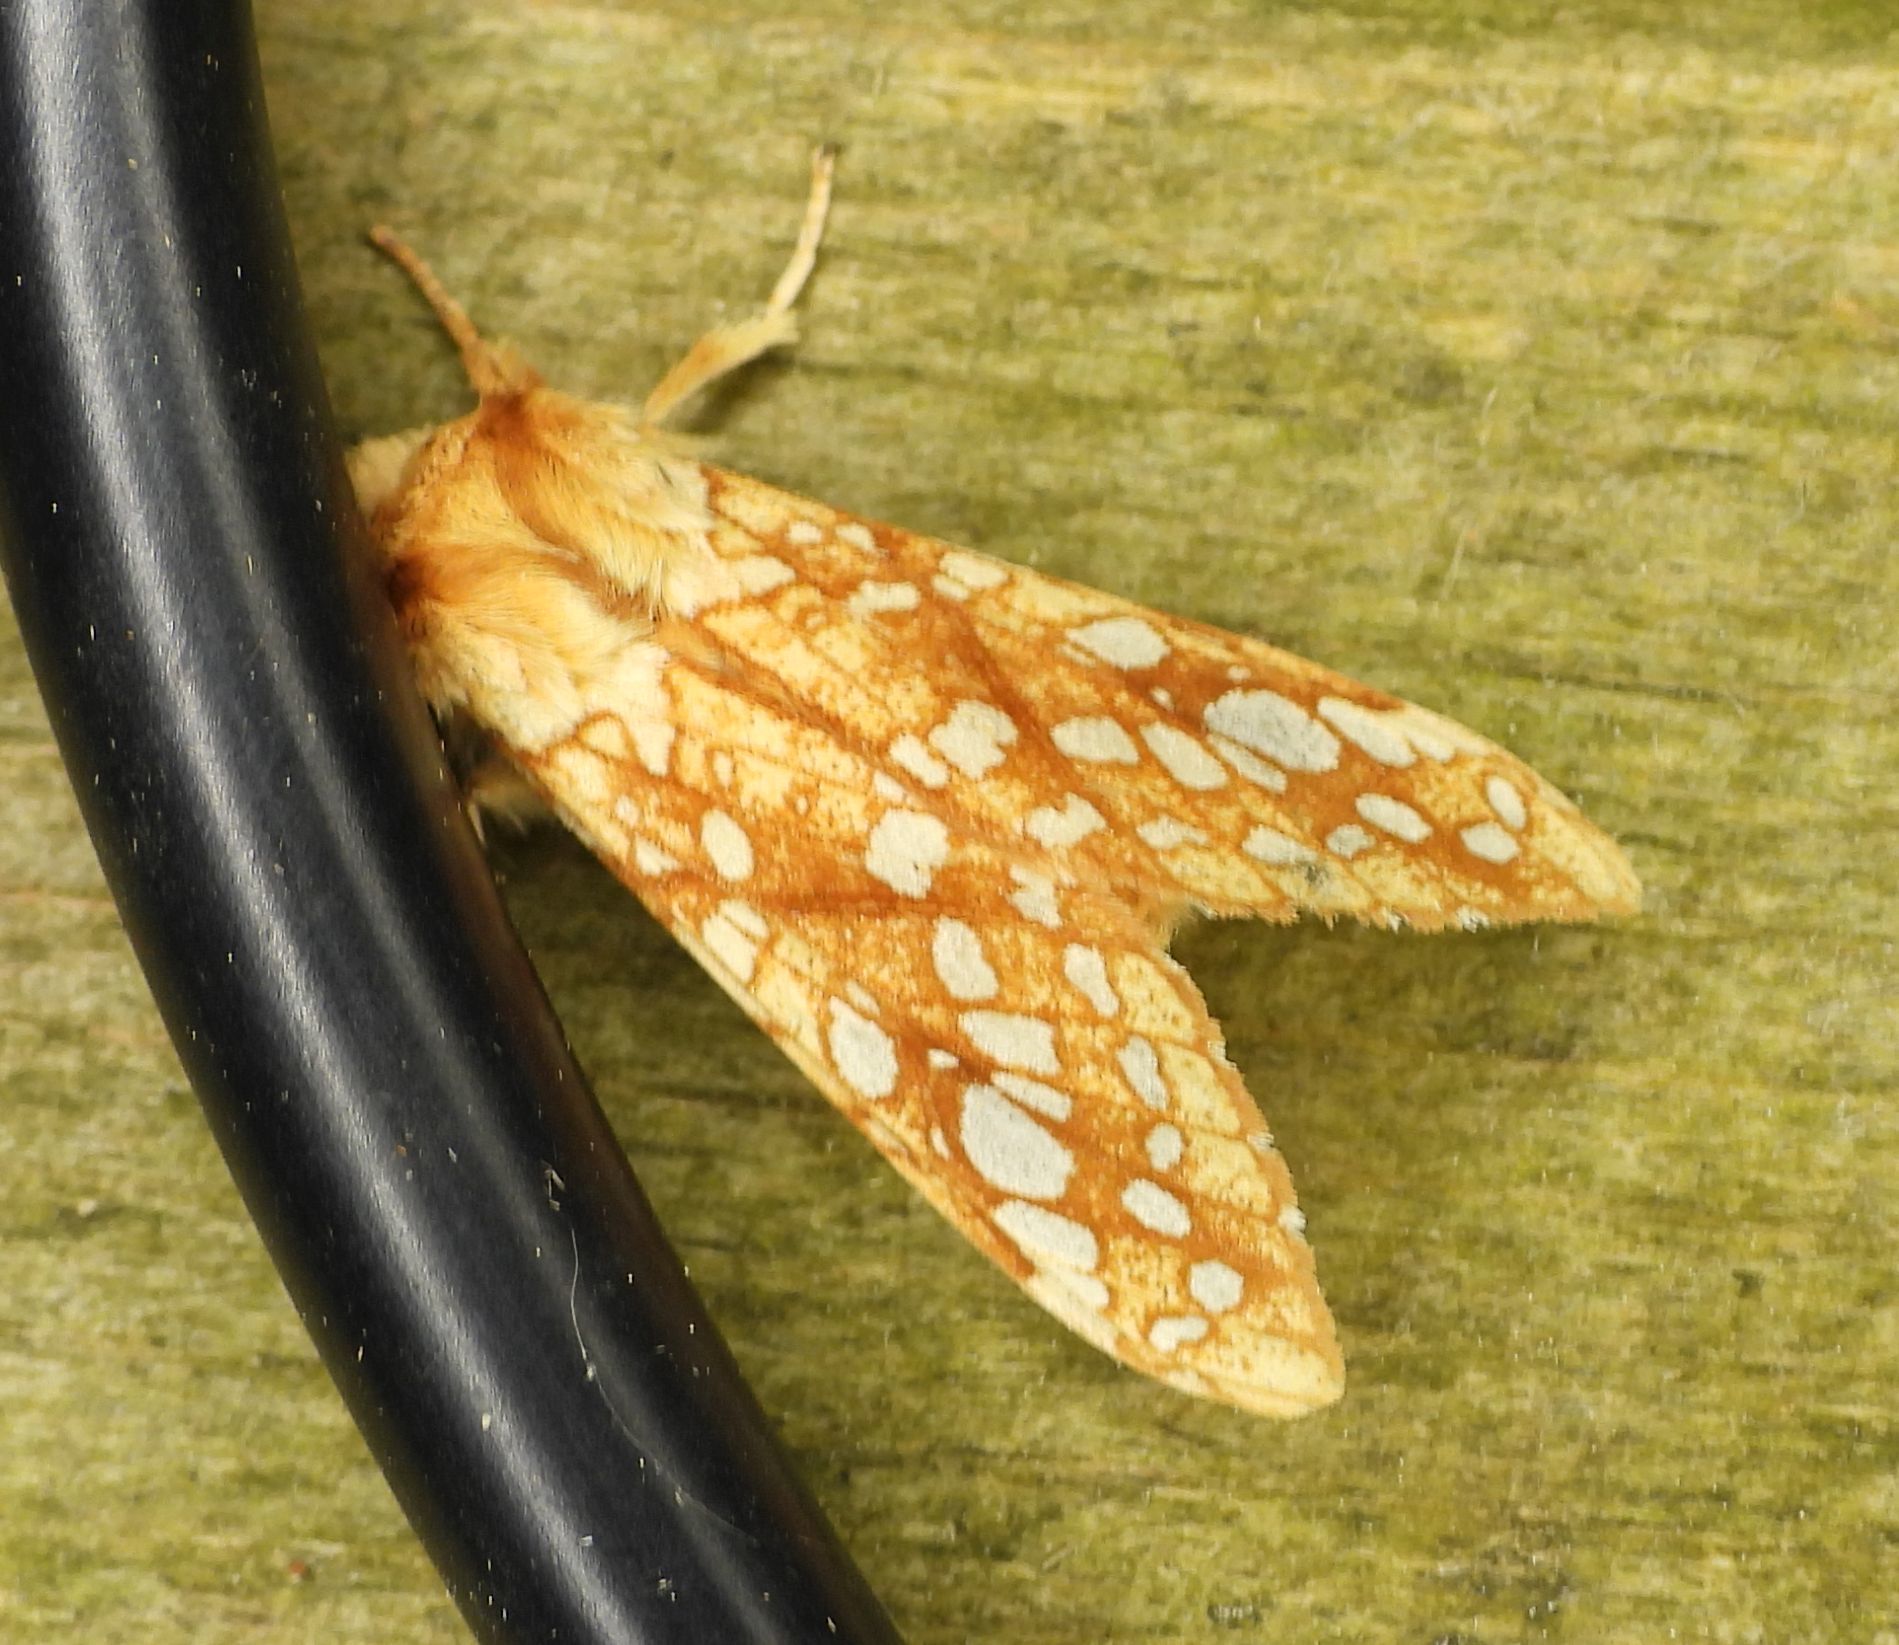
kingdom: Animalia
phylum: Arthropoda
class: Insecta
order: Lepidoptera
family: Erebidae
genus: Lophocampa
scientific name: Lophocampa caryae
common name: Hickory tussock moth
